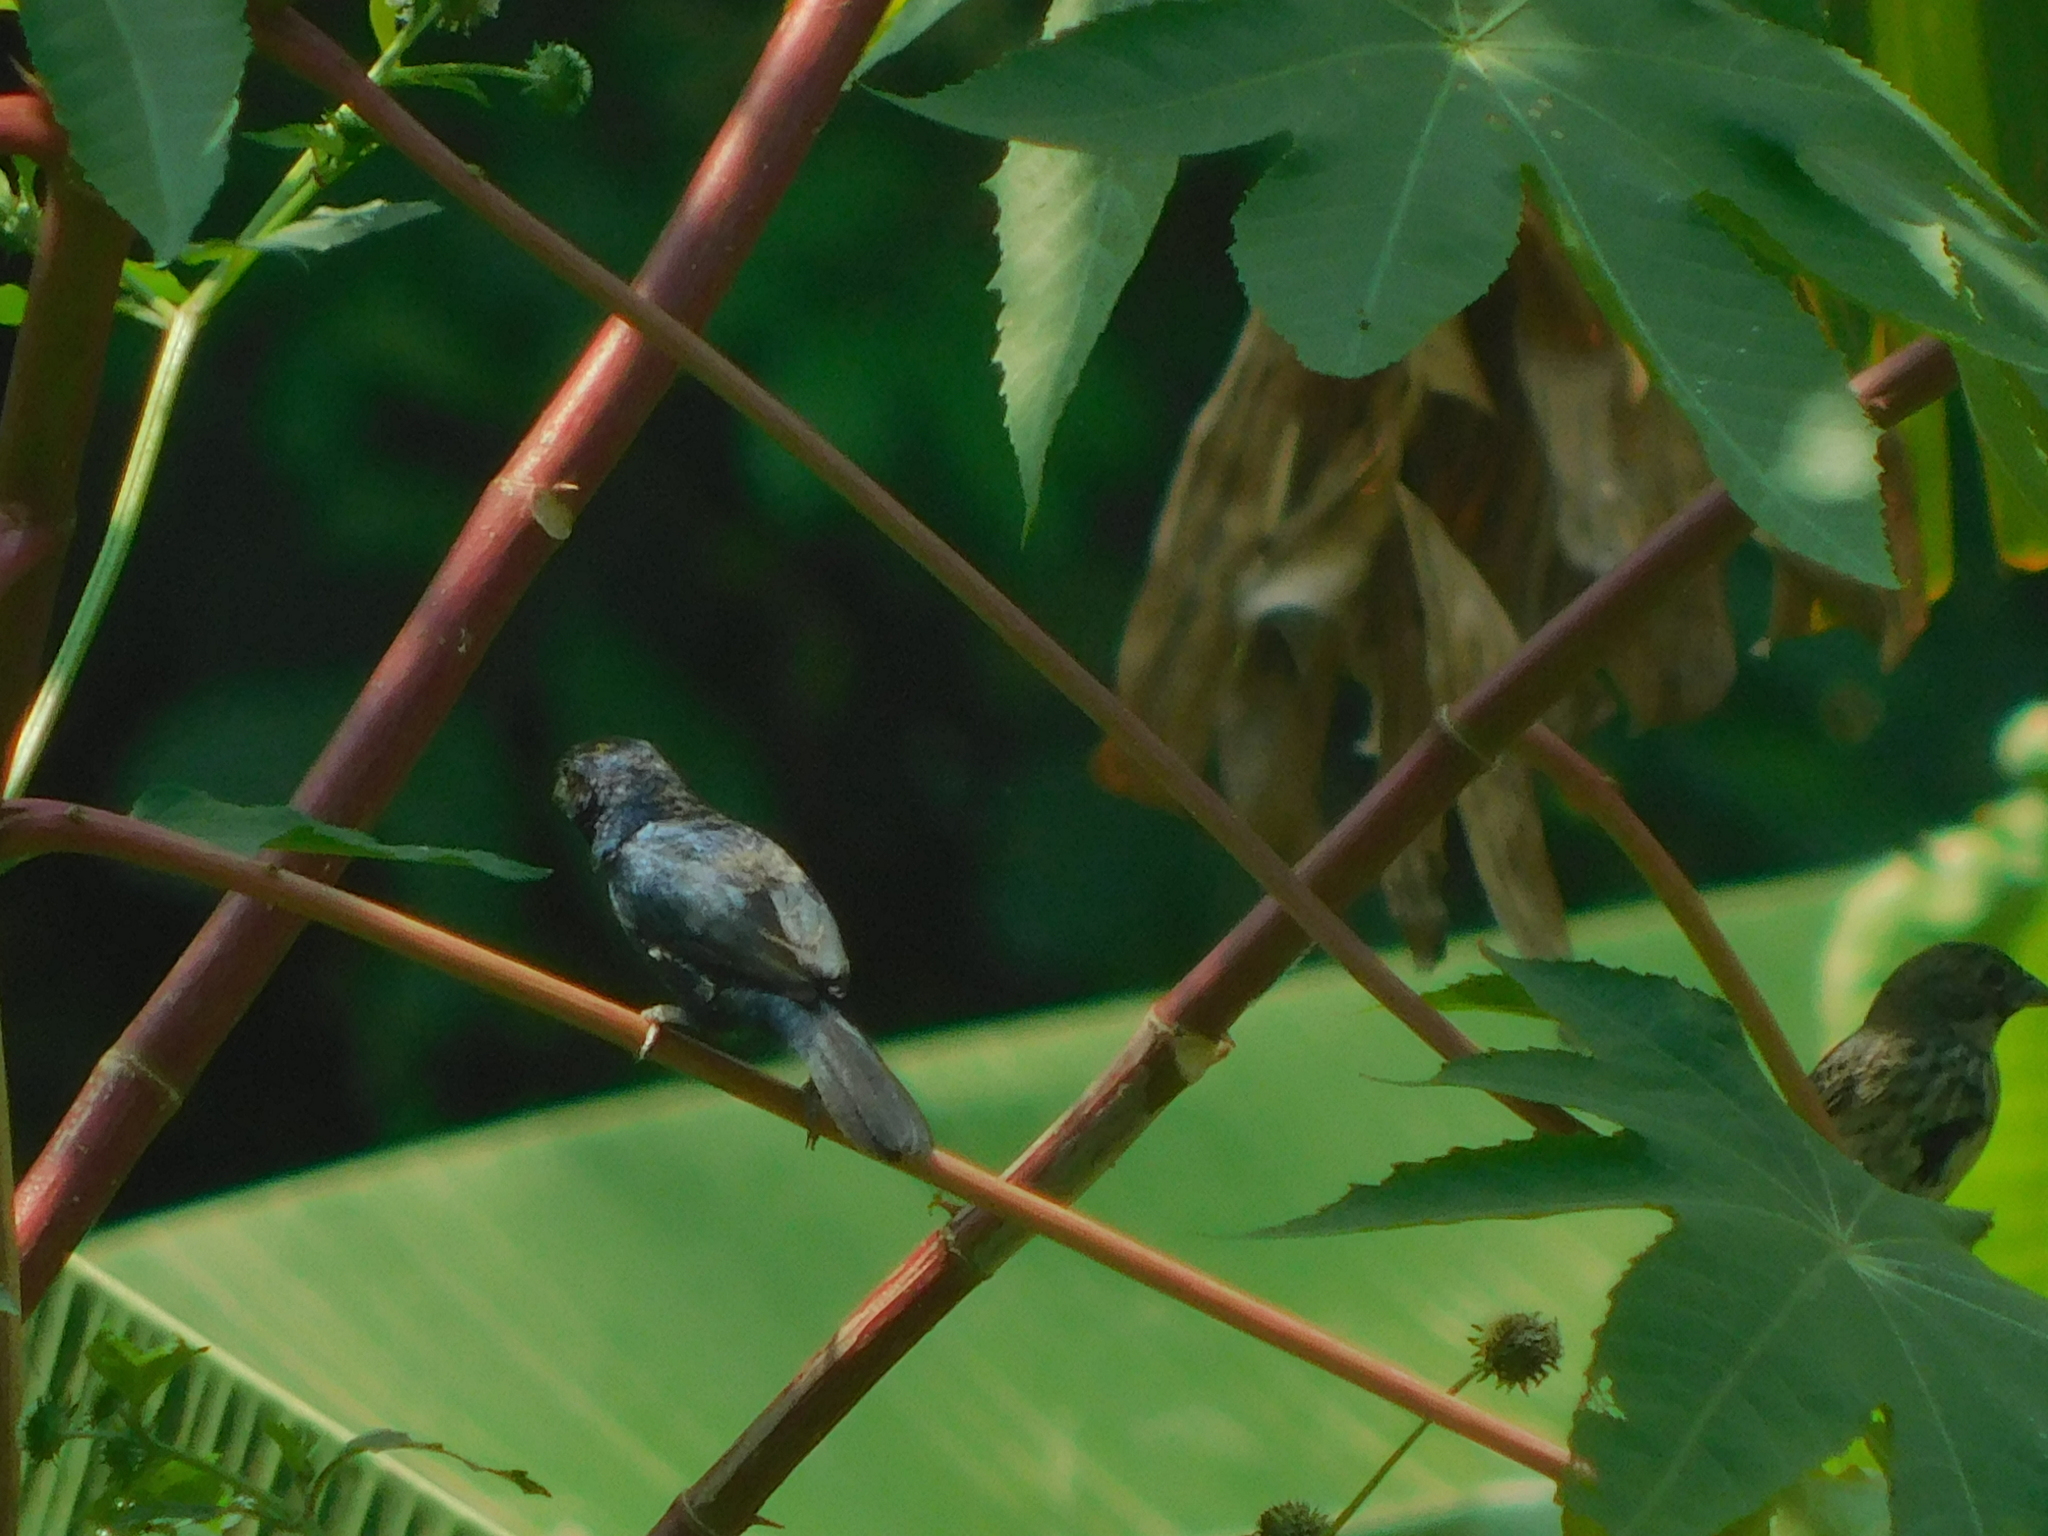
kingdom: Animalia
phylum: Chordata
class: Aves
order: Passeriformes
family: Thraupidae
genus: Volatinia
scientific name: Volatinia jacarina
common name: Blue-black grassquit
